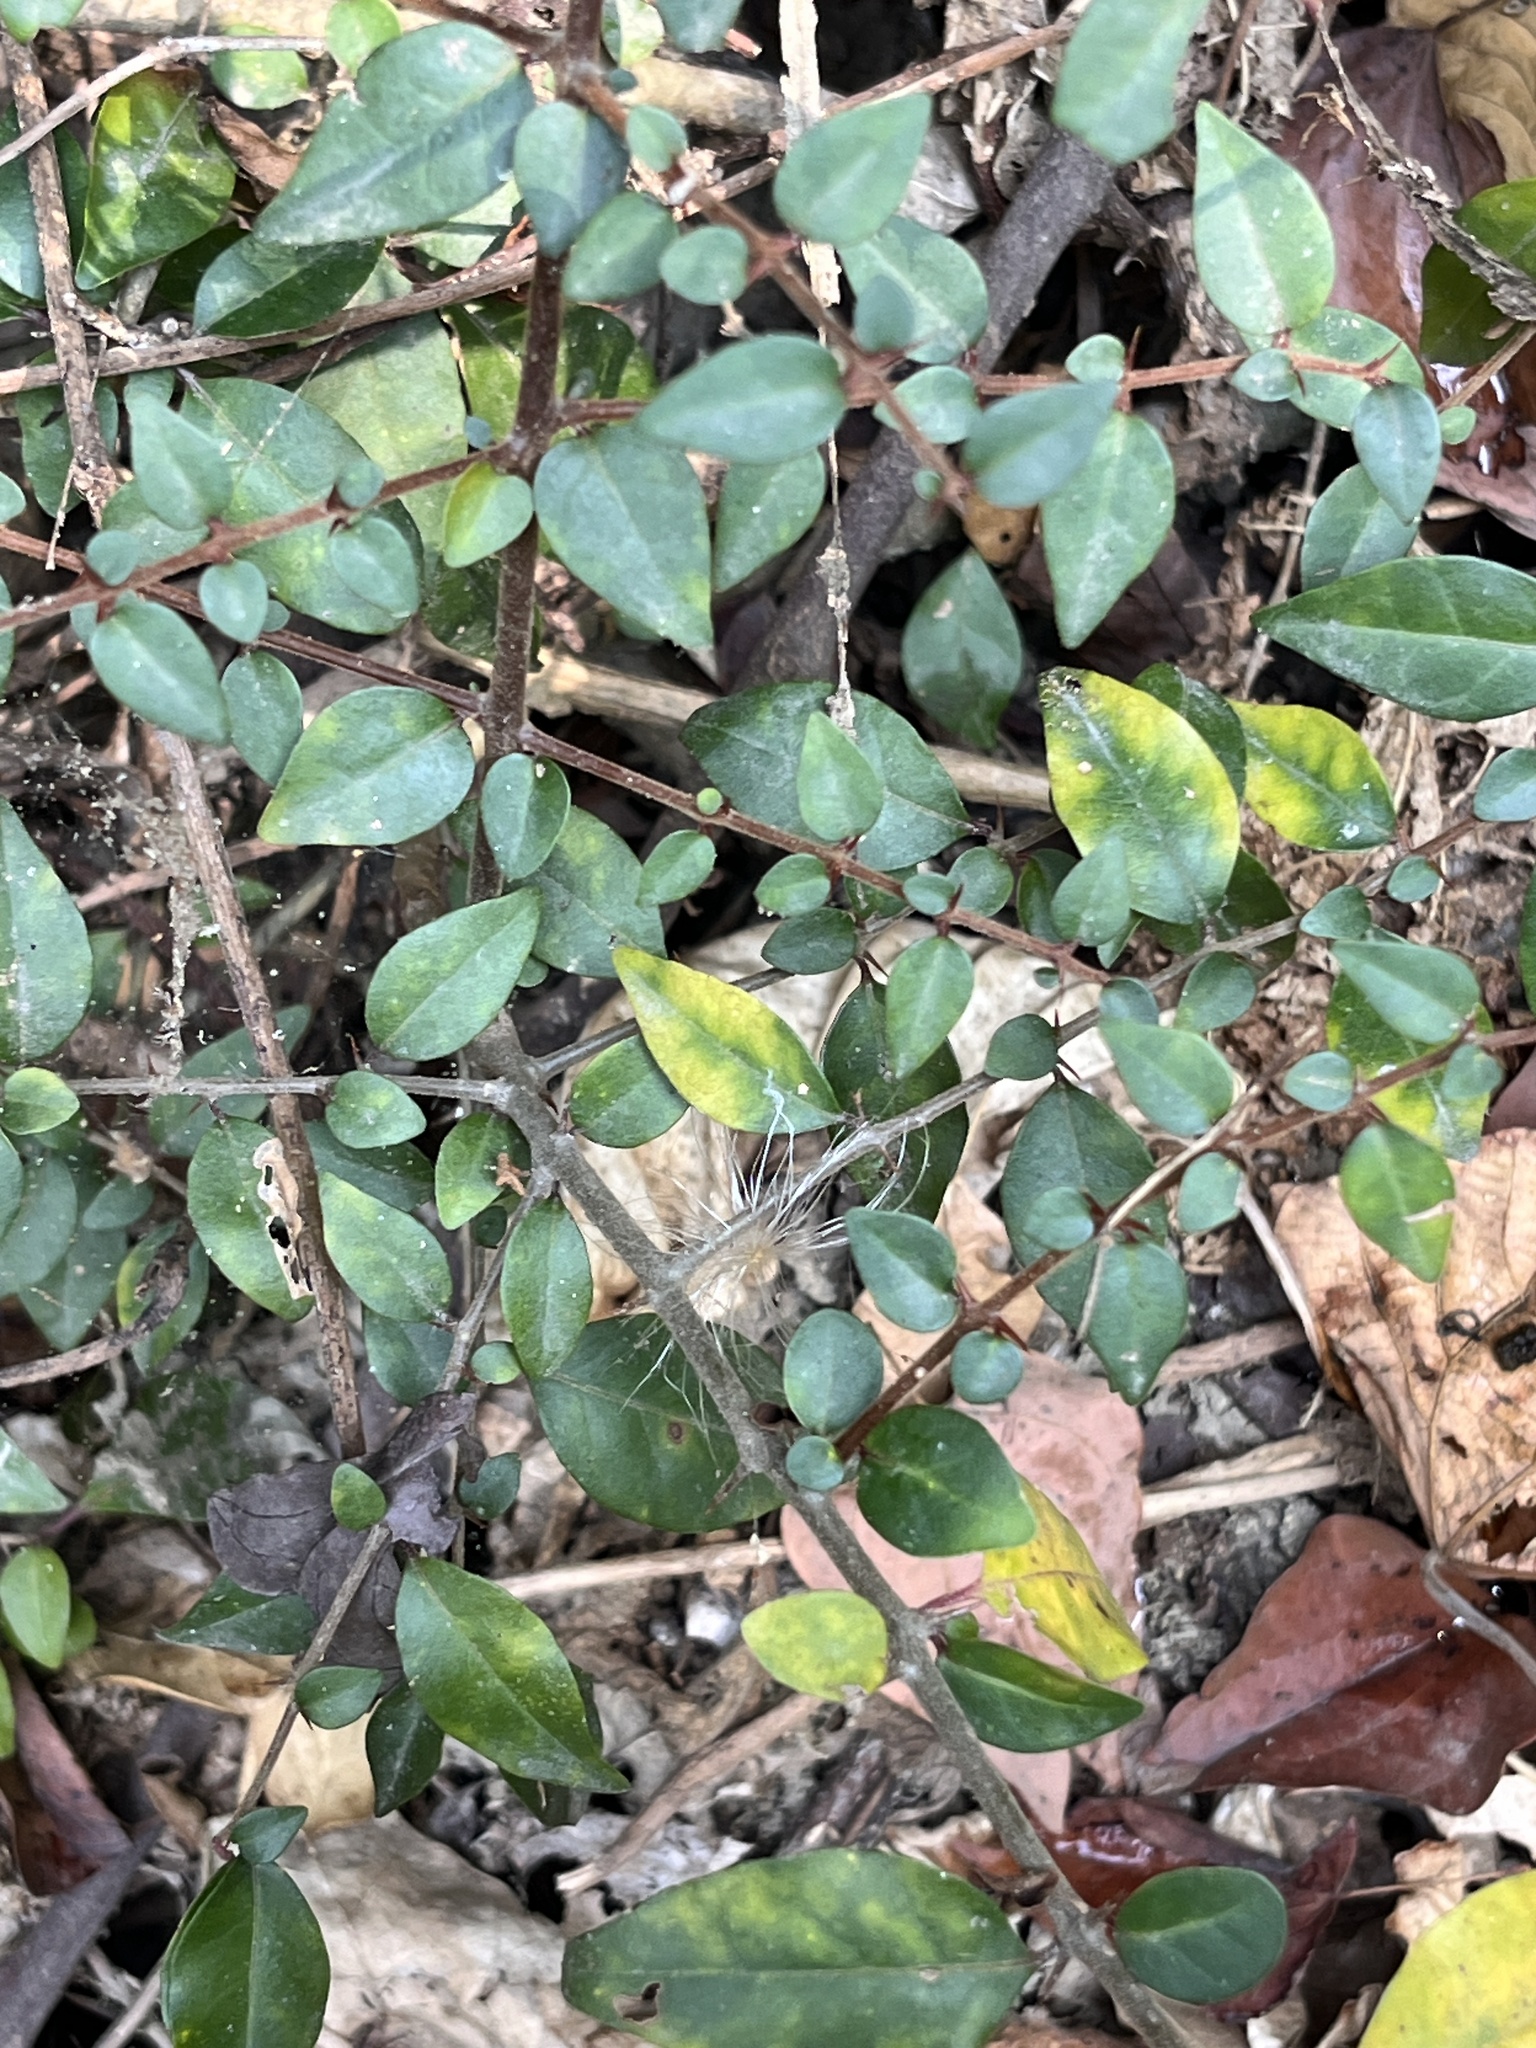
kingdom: Plantae
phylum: Tracheophyta
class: Magnoliopsida
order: Caryophyllales
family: Nyctaginaceae
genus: Pisonia
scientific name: Pisonia aculeata
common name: Cockspur vine
